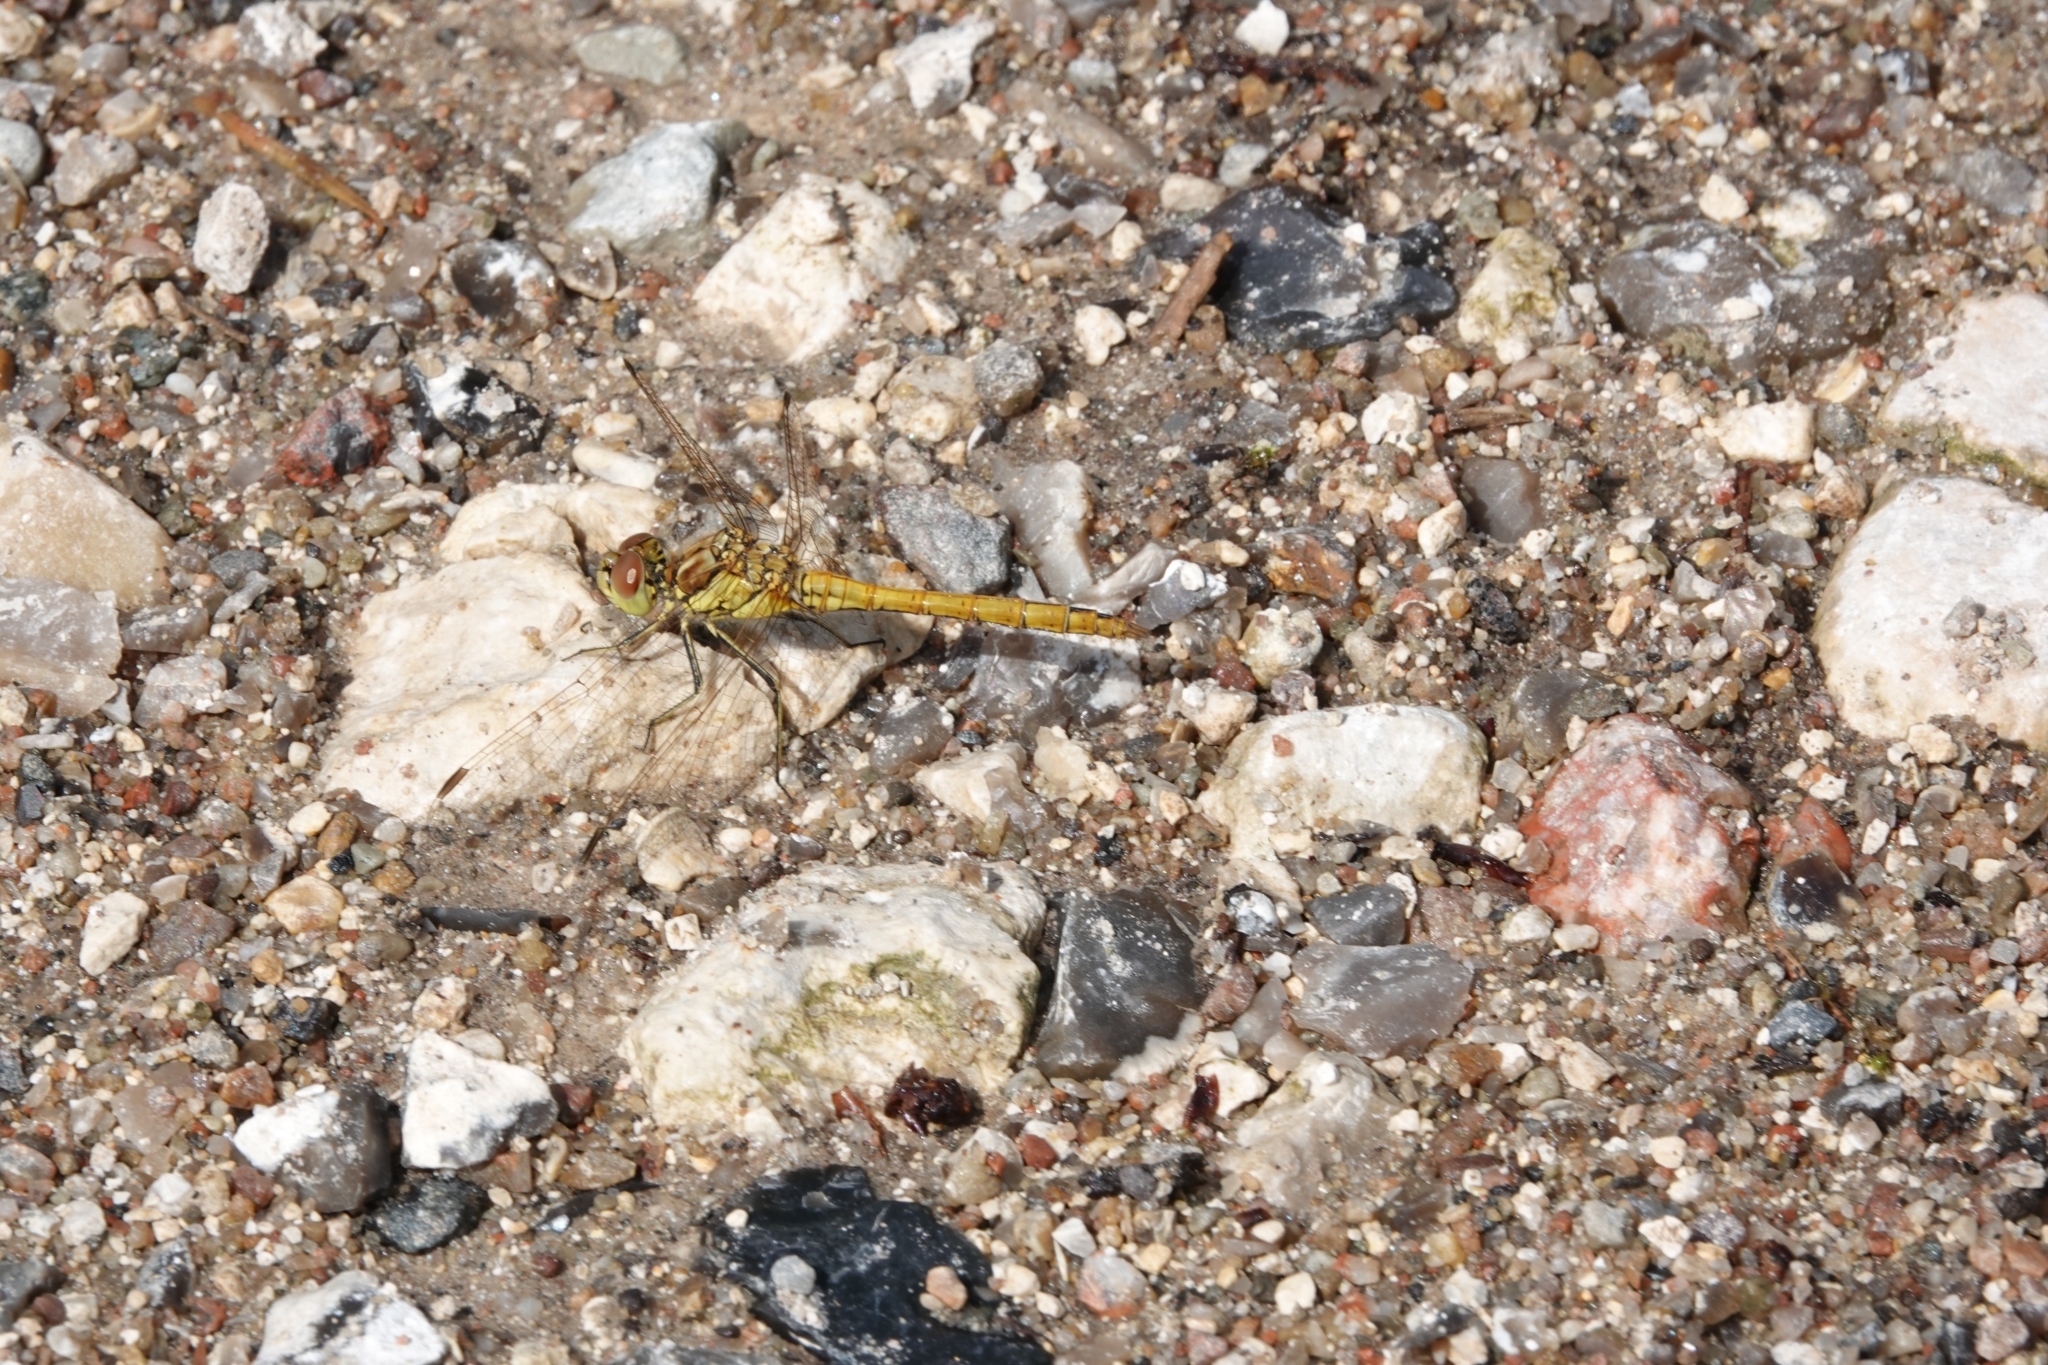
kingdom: Animalia
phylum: Arthropoda
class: Insecta
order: Odonata
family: Libellulidae
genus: Sympetrum
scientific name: Sympetrum vulgatum
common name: Vagrant darter
